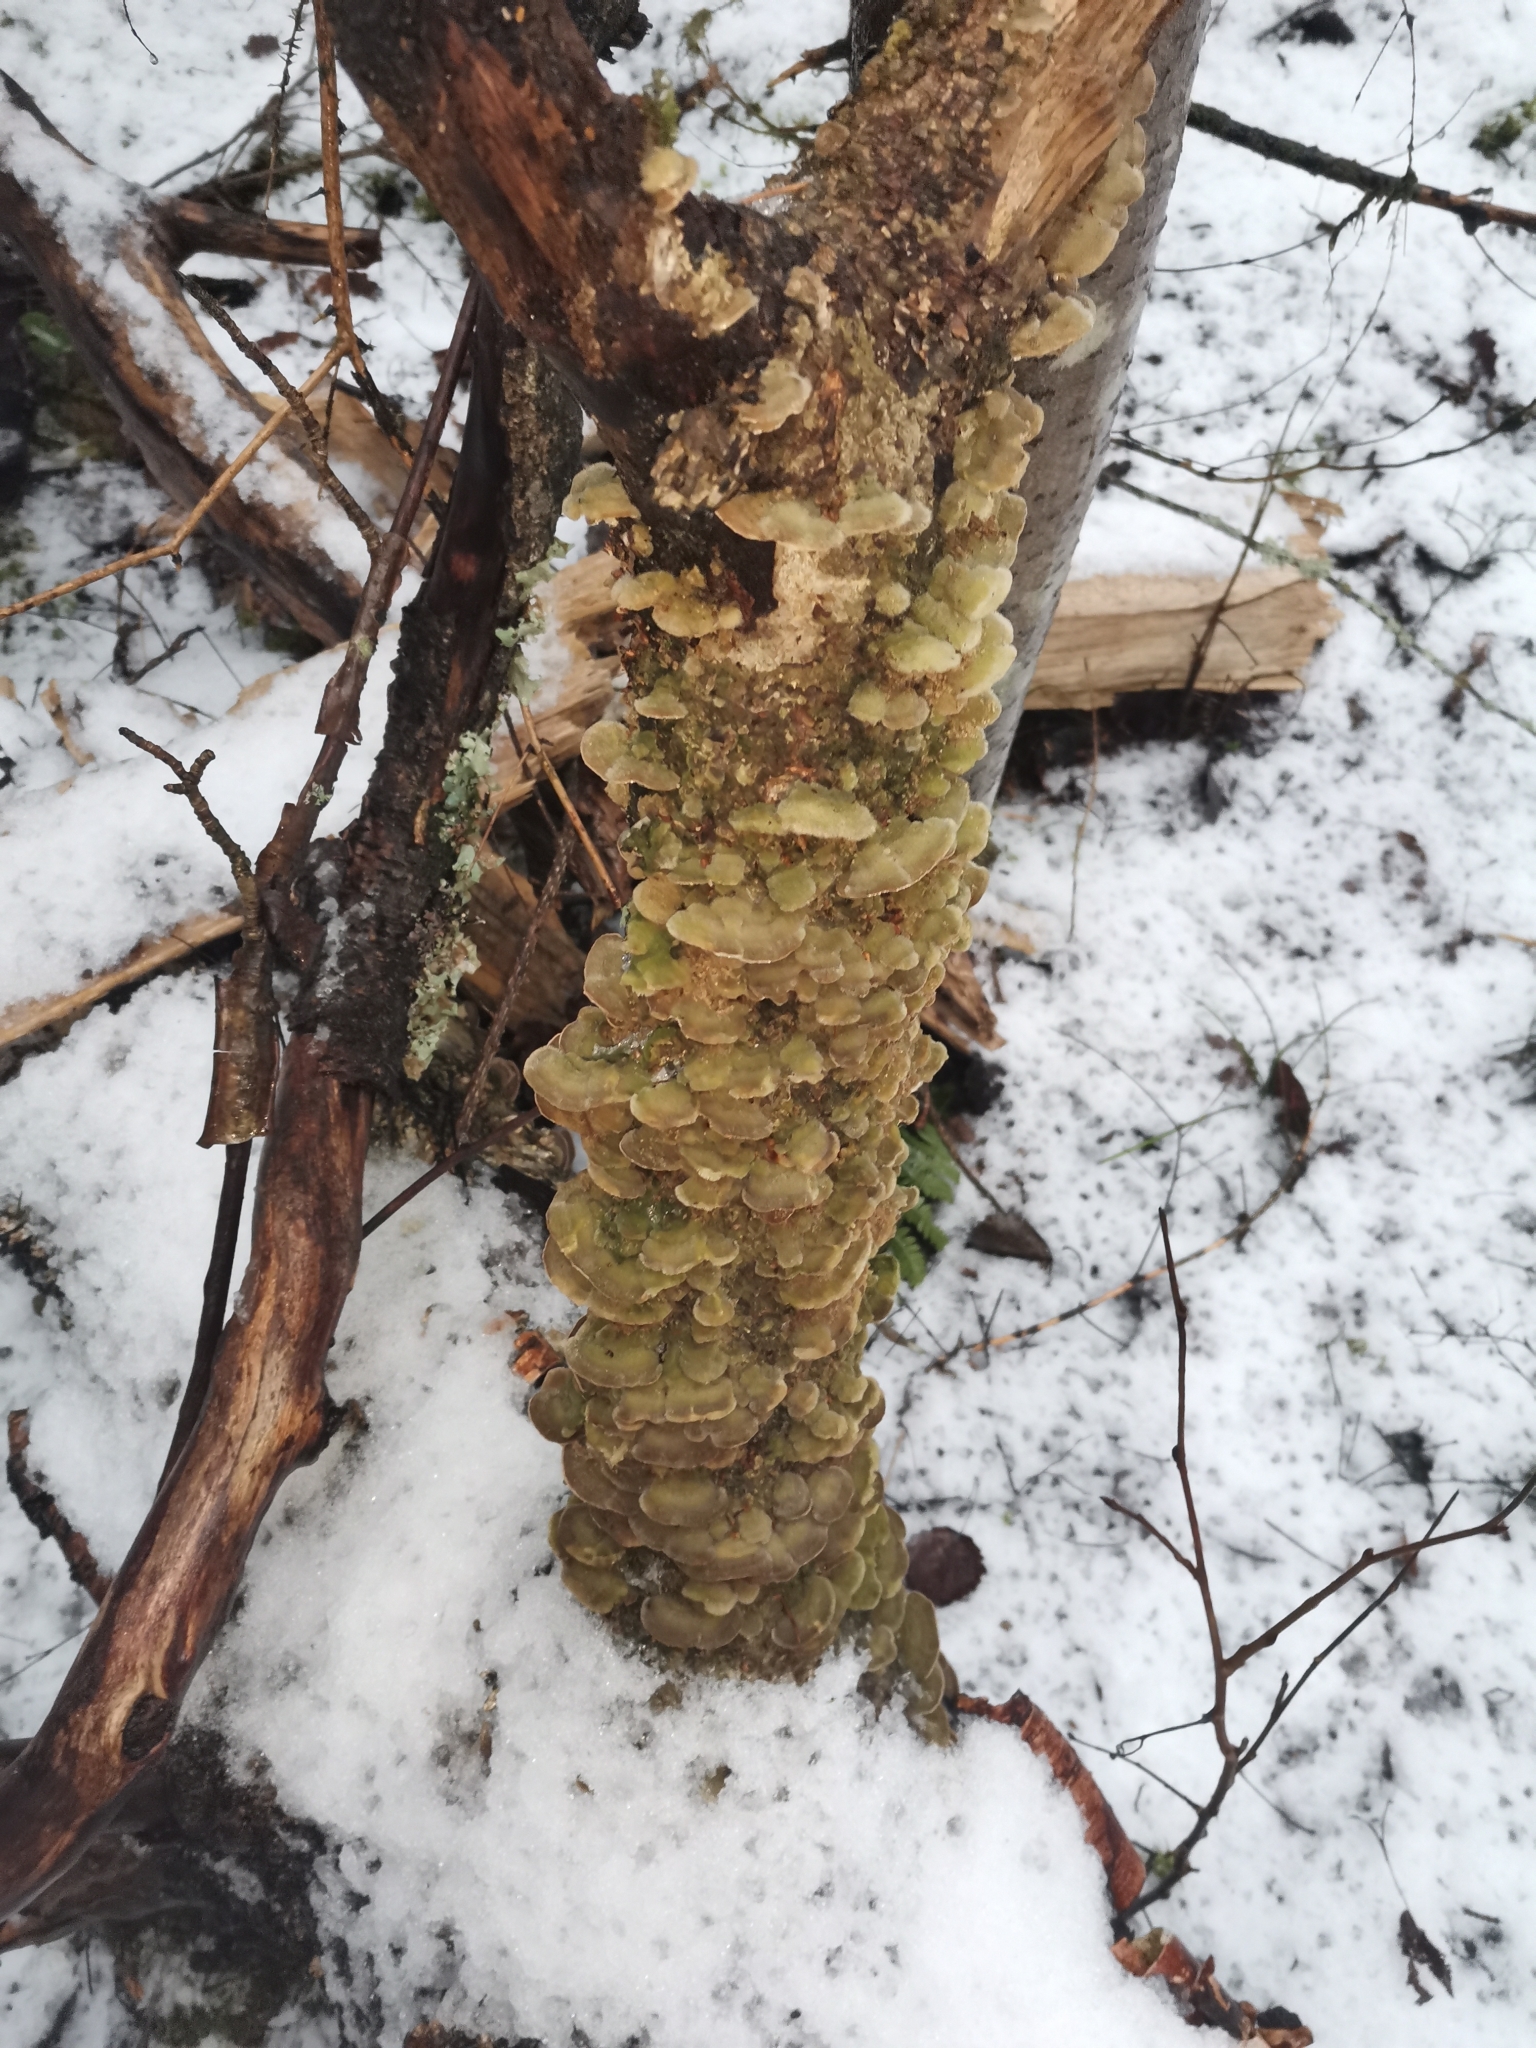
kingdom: Fungi
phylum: Basidiomycota
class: Agaricomycetes
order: Polyporales
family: Cerrenaceae
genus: Cerrena
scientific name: Cerrena unicolor
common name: Mossy maze polypore
